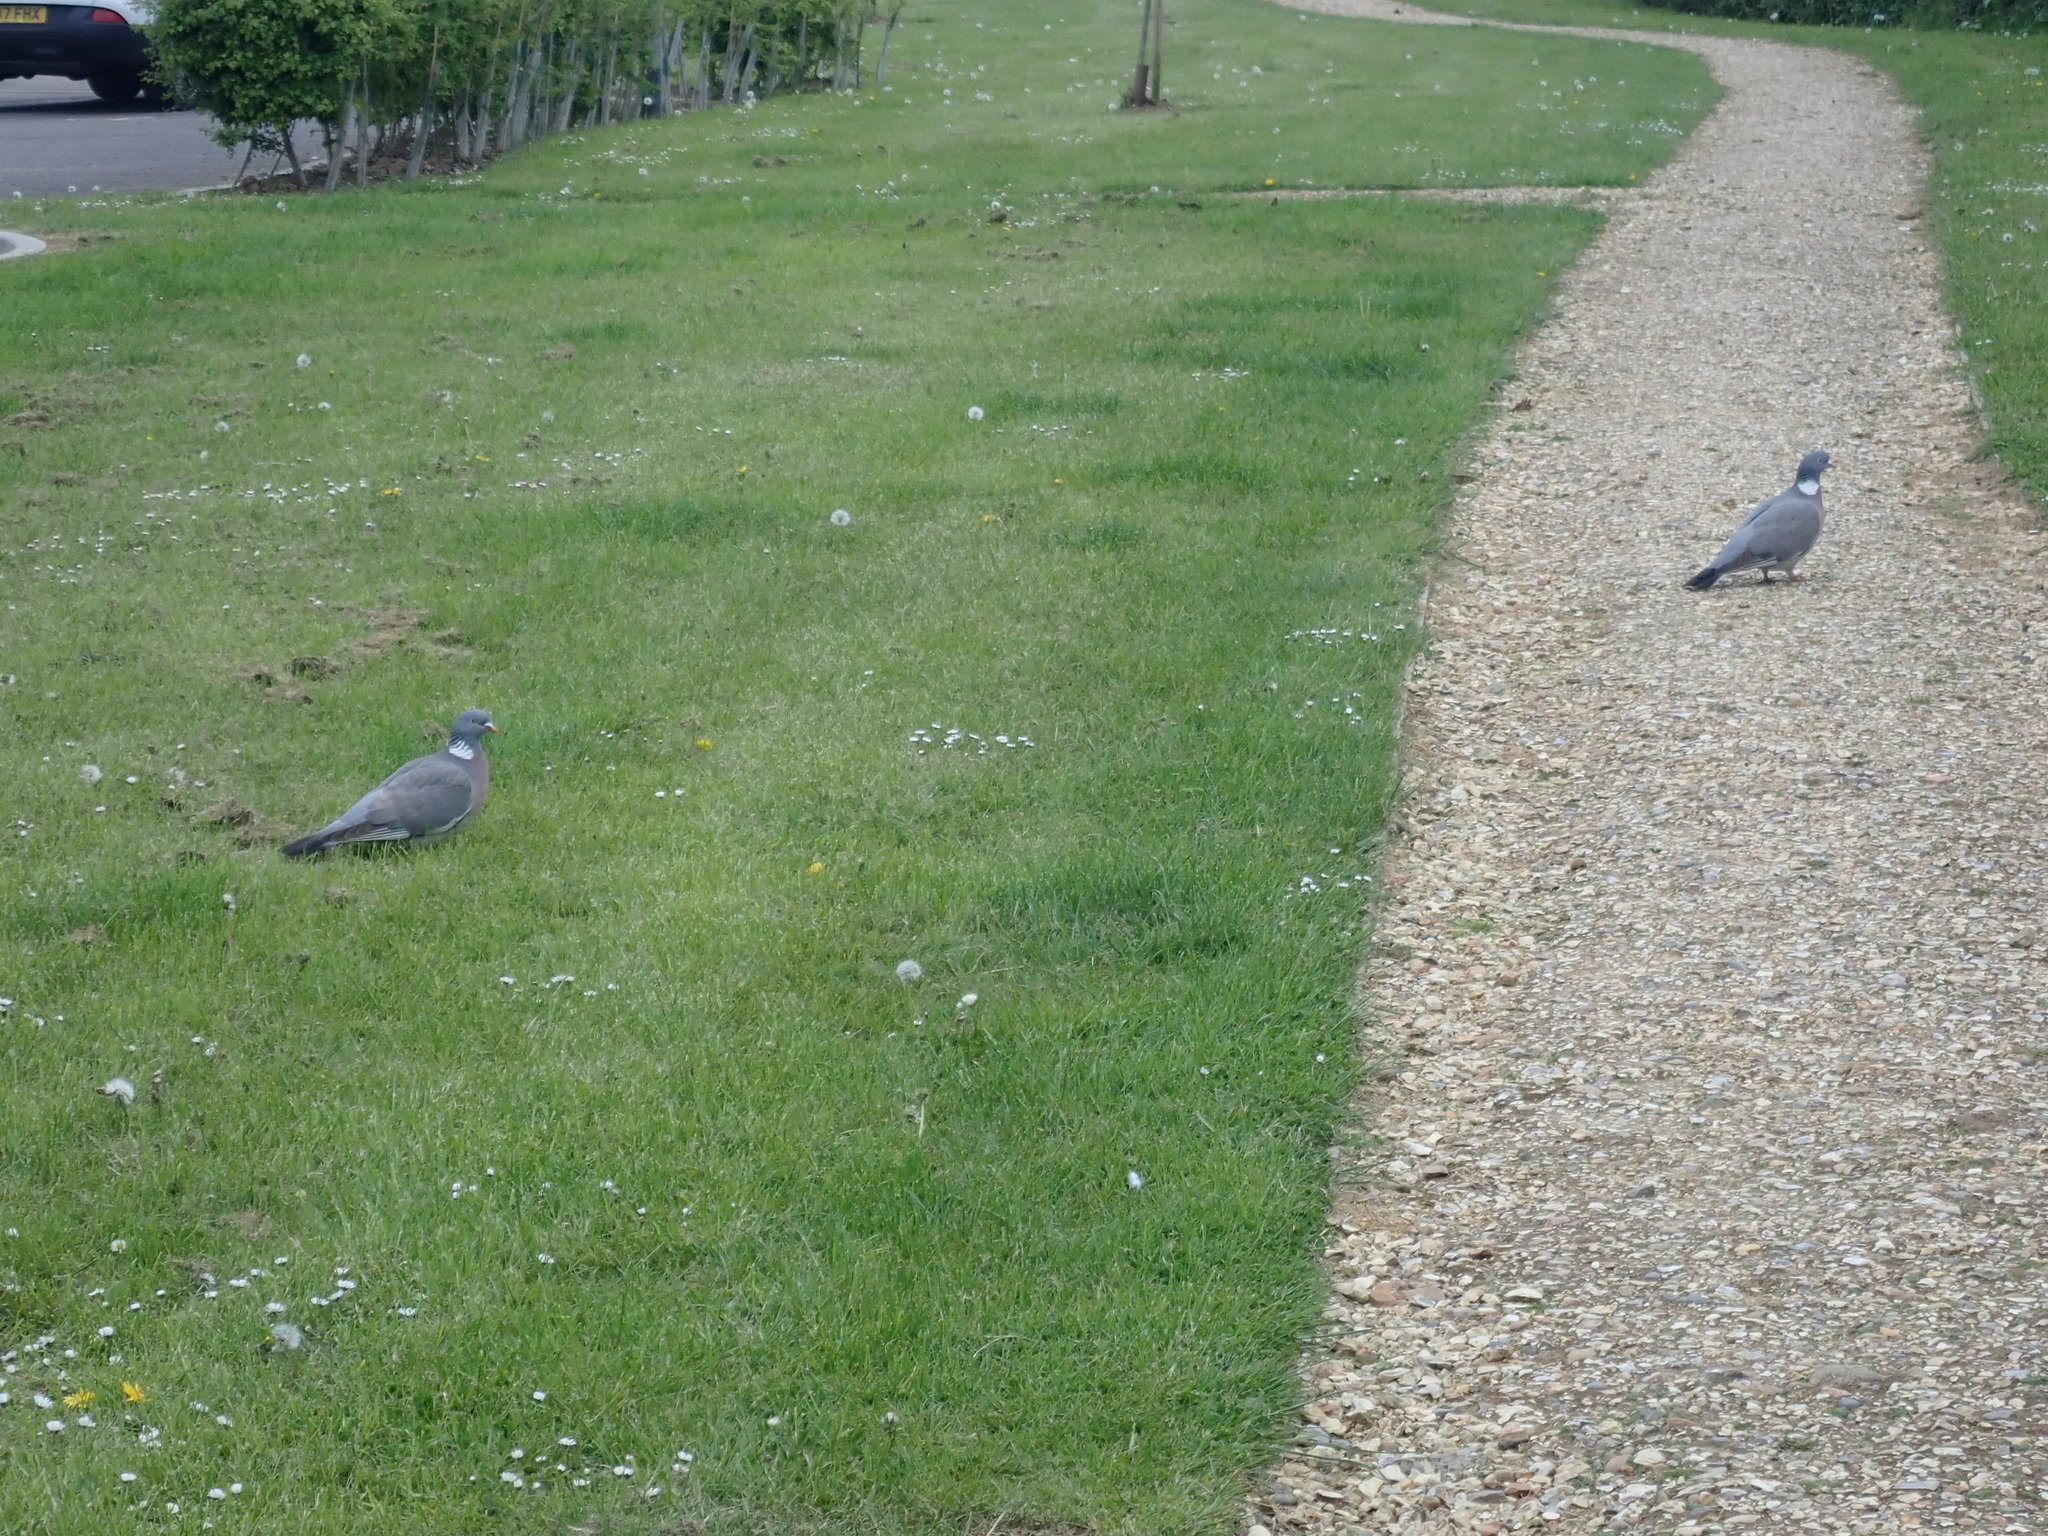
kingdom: Animalia
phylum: Chordata
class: Aves
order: Columbiformes
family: Columbidae
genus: Columba
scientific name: Columba palumbus
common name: Common wood pigeon
